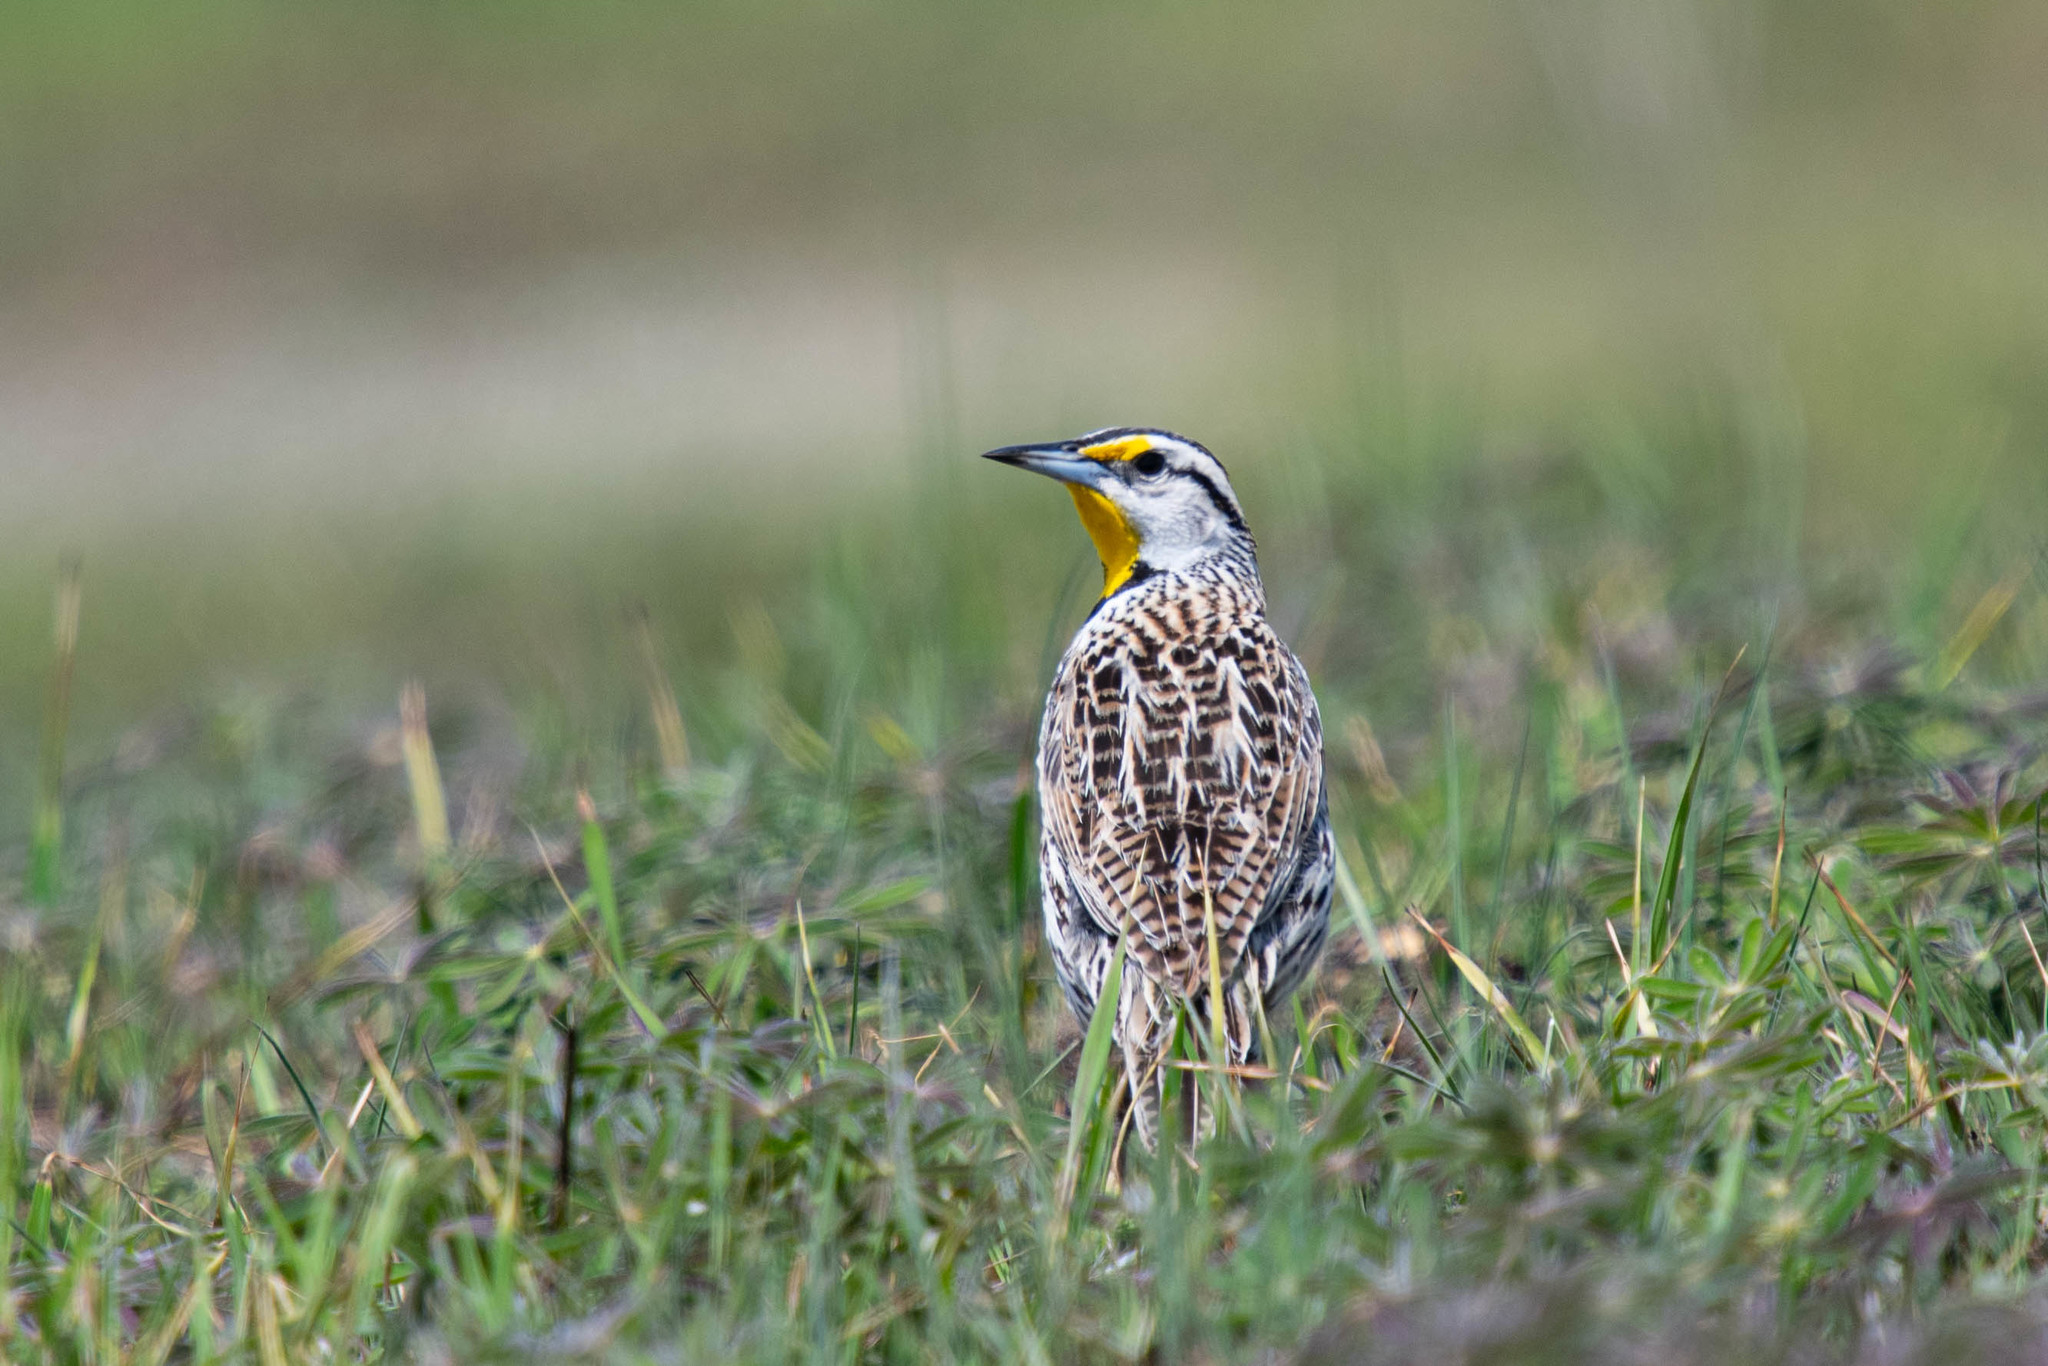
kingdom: Animalia
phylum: Chordata
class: Aves
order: Passeriformes
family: Icteridae
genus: Sturnella
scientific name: Sturnella magna
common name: Eastern meadowlark
